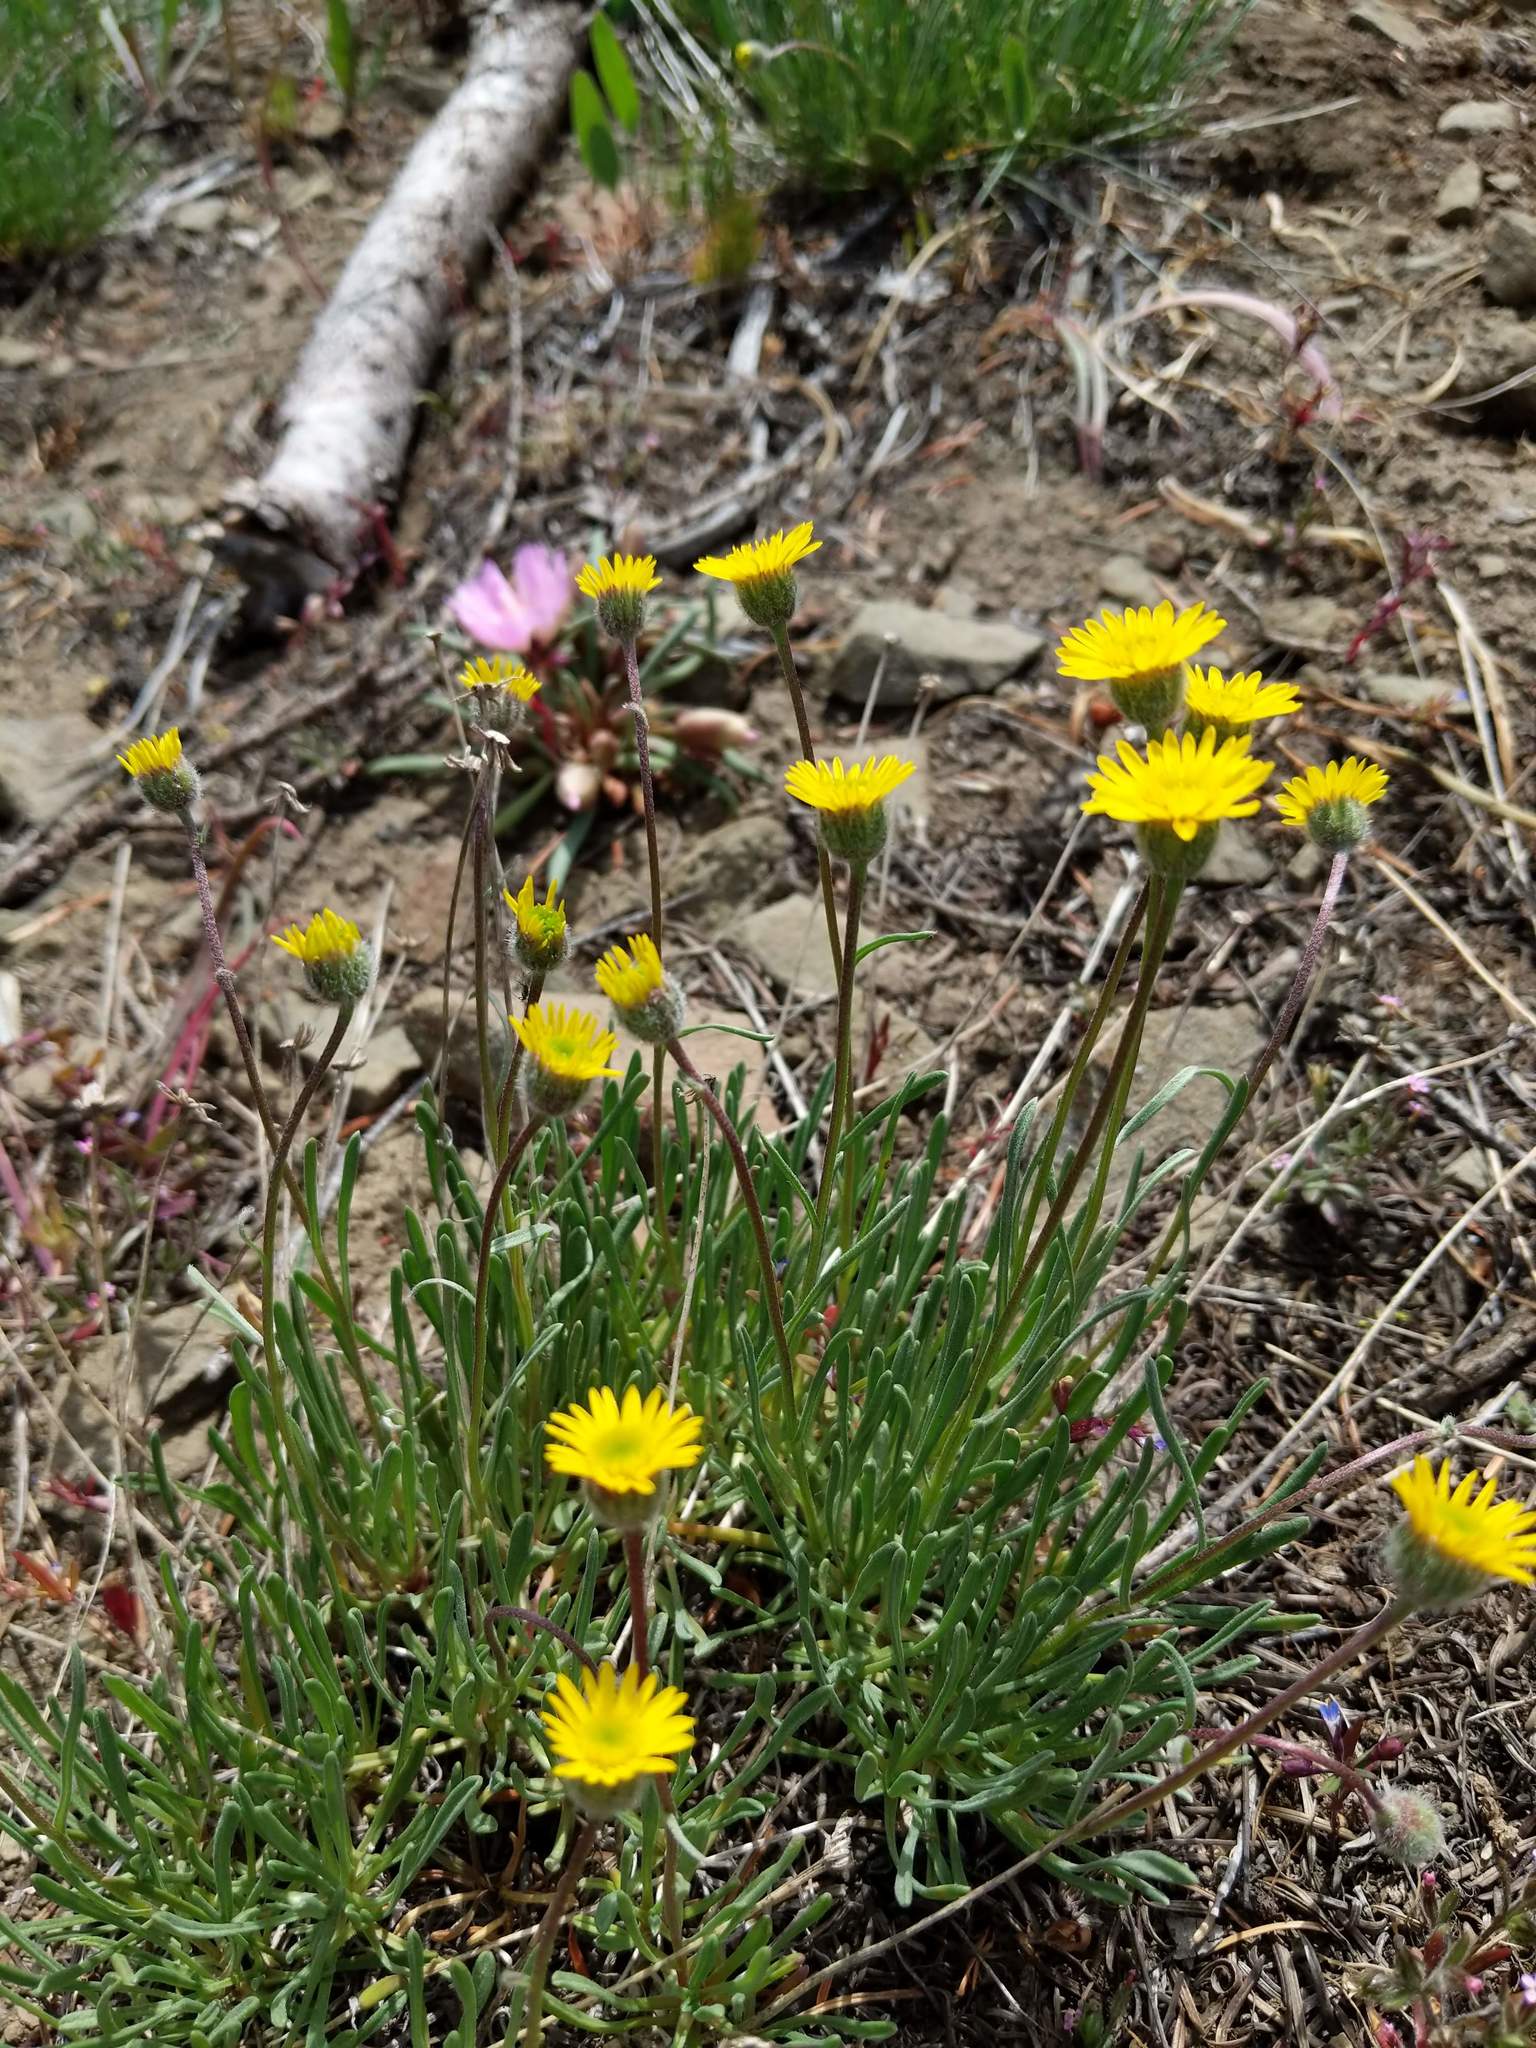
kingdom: Plantae
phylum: Tracheophyta
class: Magnoliopsida
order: Asterales
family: Asteraceae
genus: Erigeron
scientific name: Erigeron linearis
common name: Desert yellow fleabane
